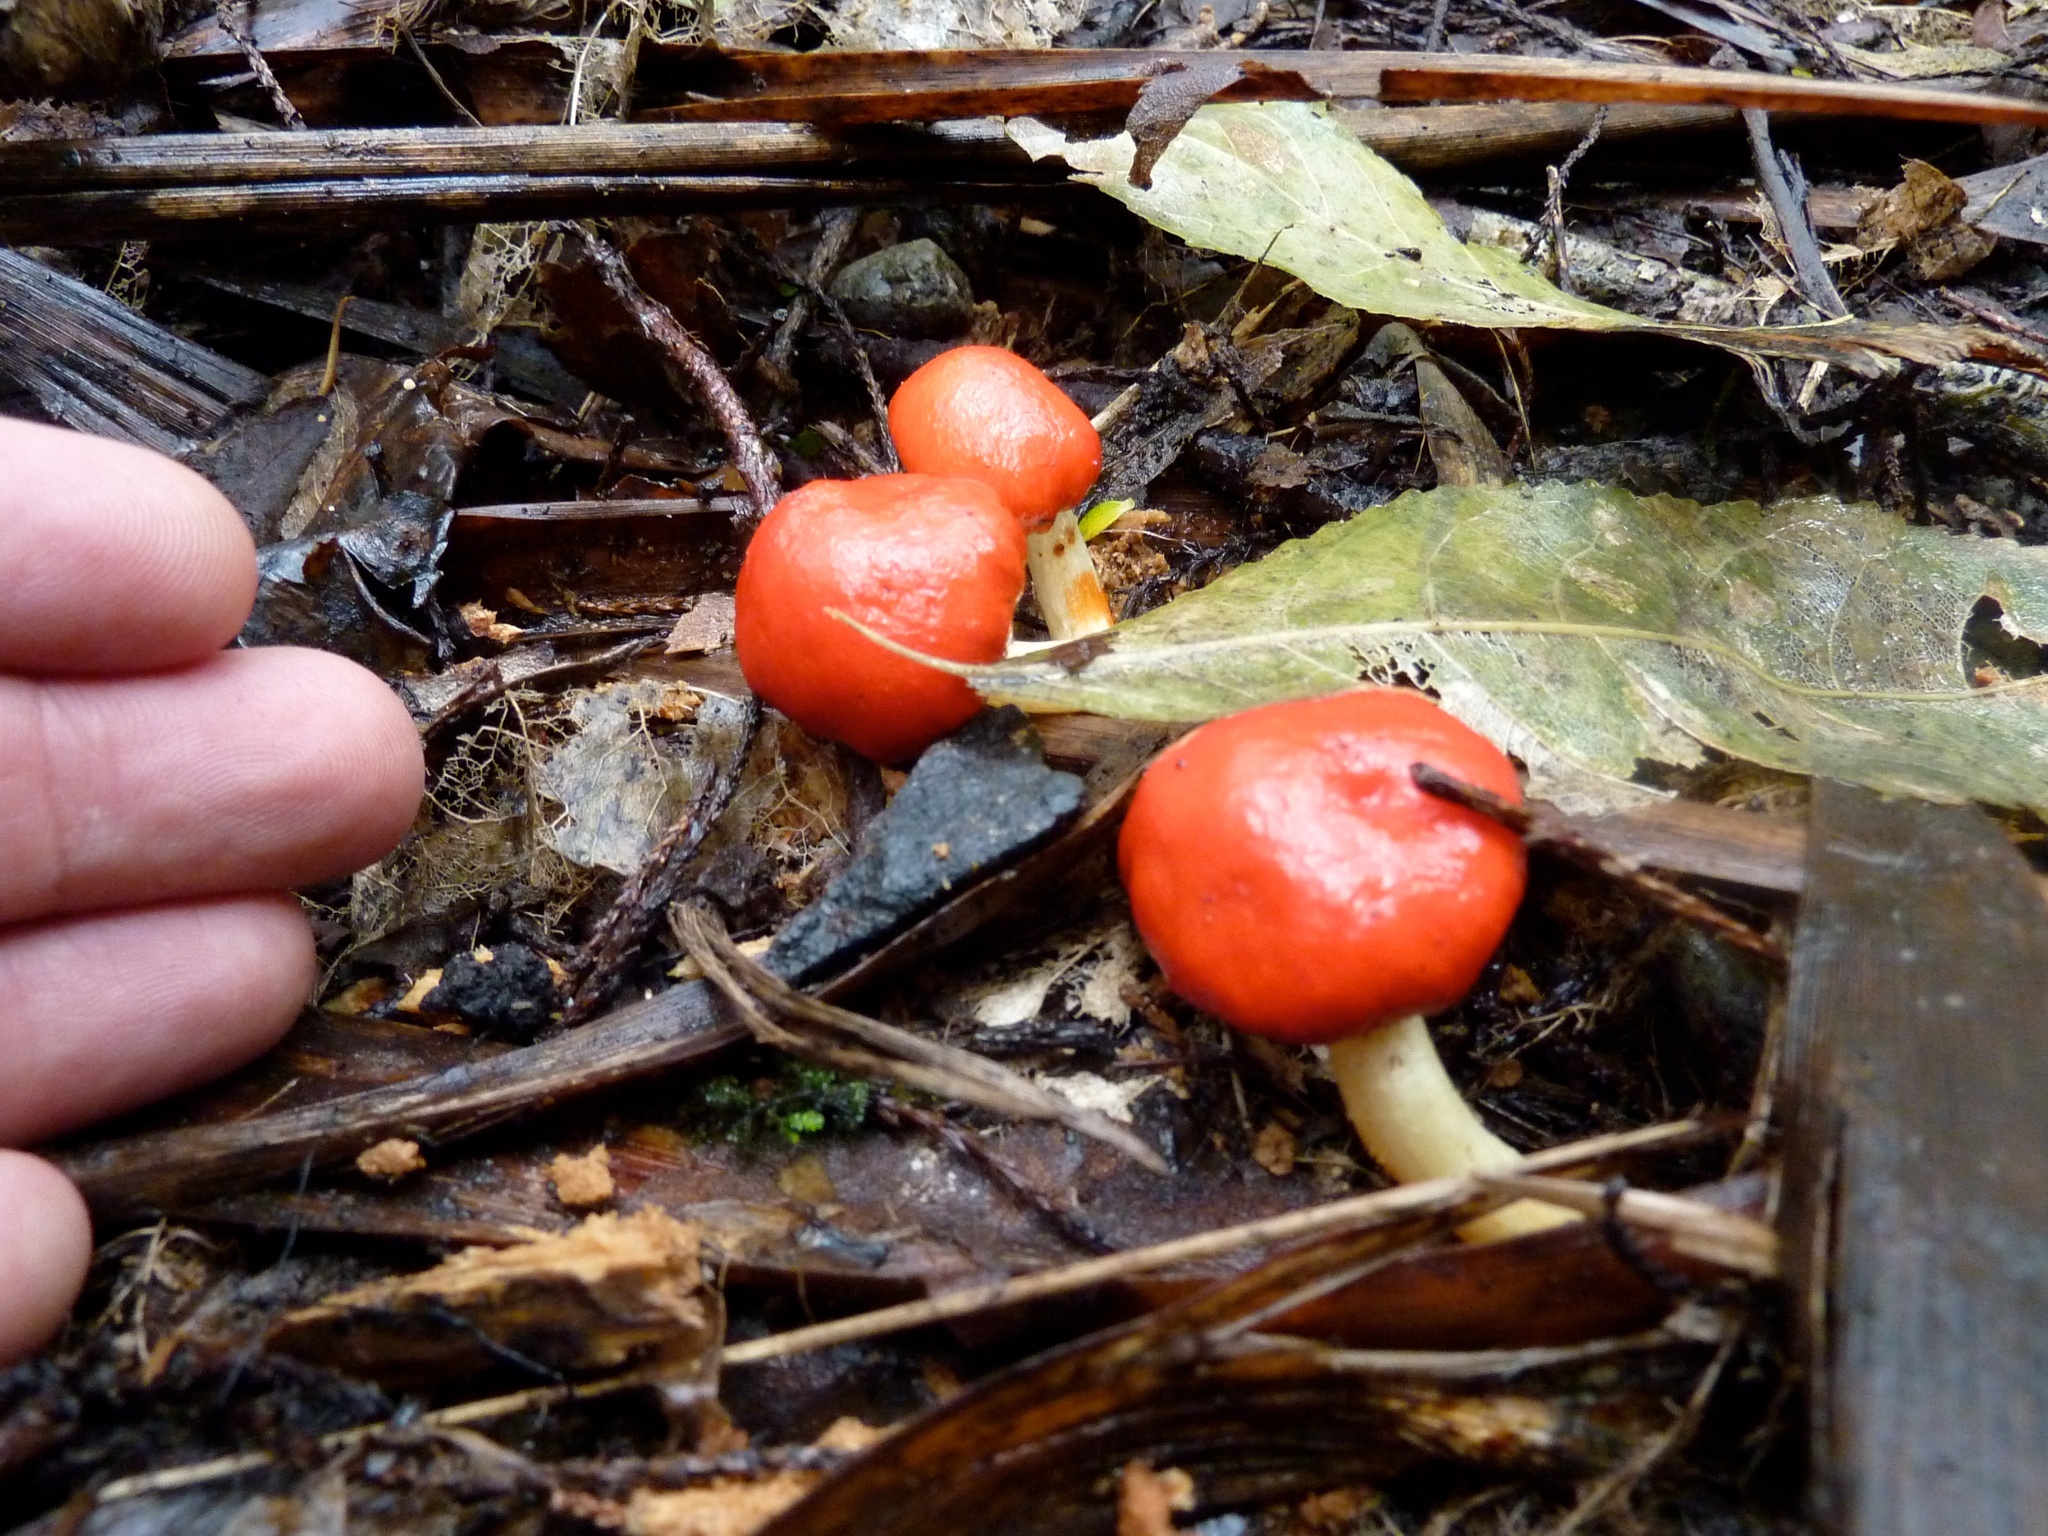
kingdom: Fungi
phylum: Basidiomycota
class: Agaricomycetes
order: Agaricales
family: Strophariaceae
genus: Leratiomyces
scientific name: Leratiomyces erythrocephalus
